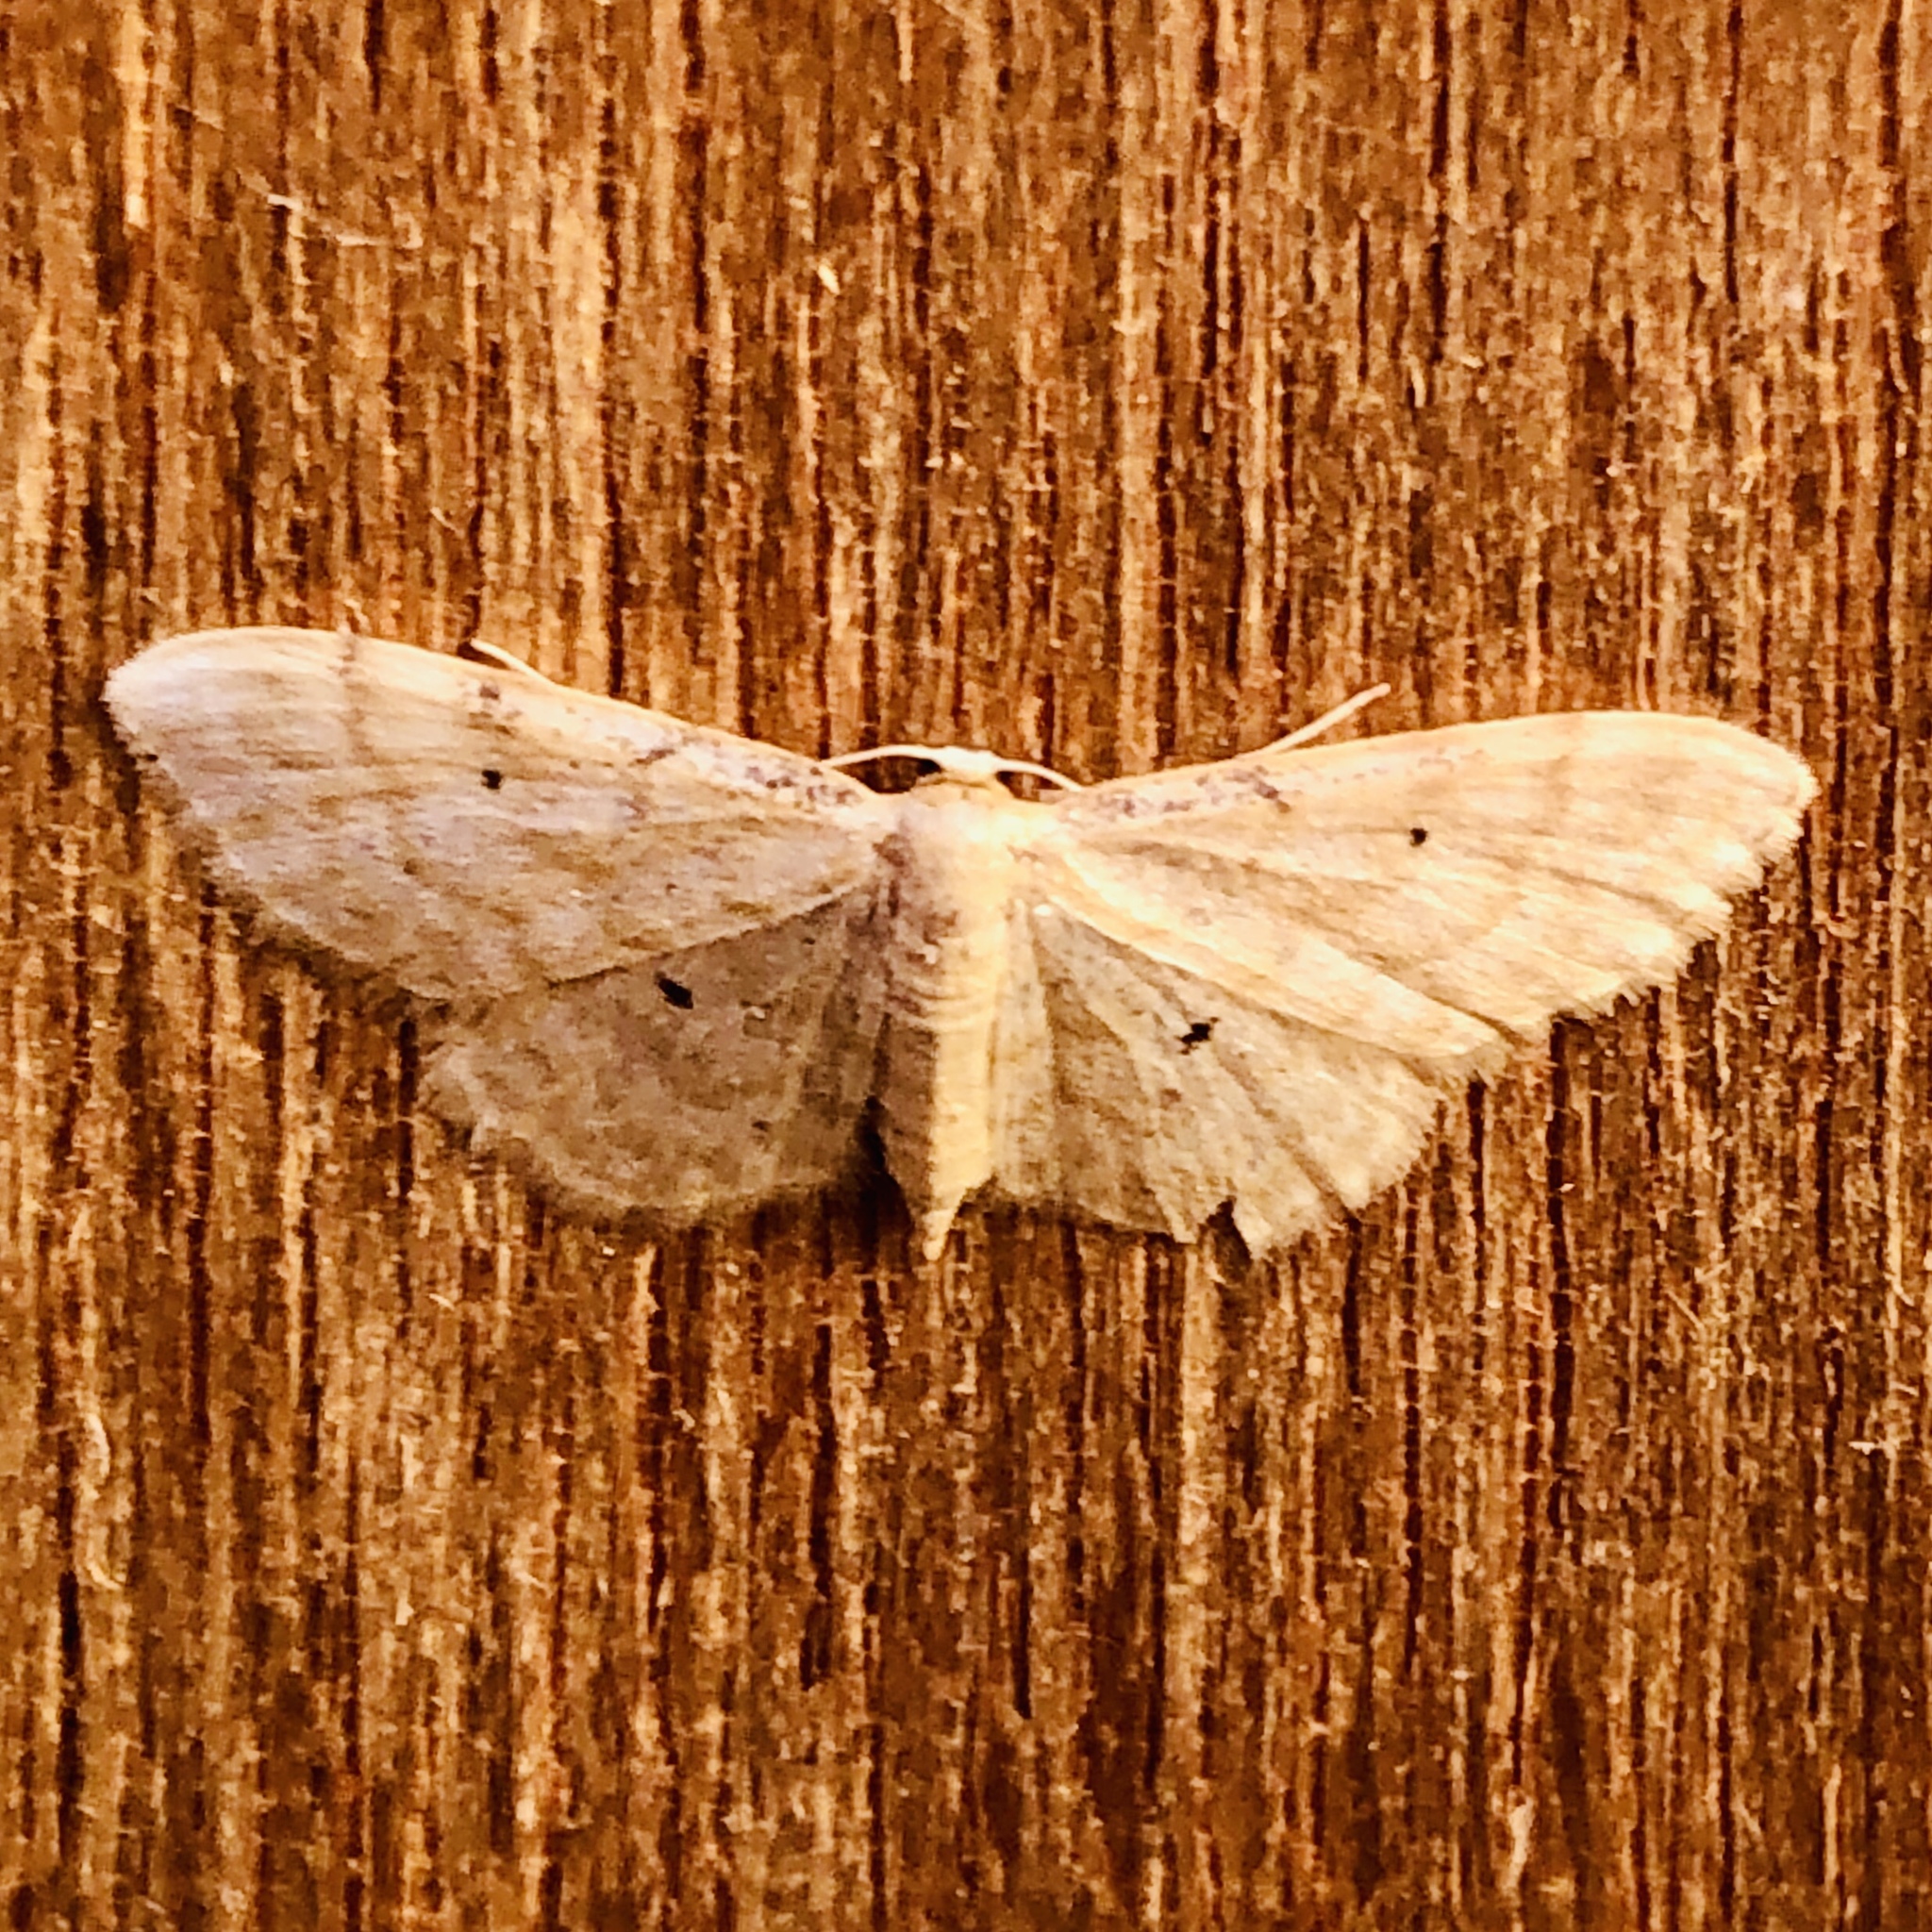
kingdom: Animalia
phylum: Arthropoda
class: Insecta
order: Lepidoptera
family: Geometridae
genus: Idaea
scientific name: Idaea fuscovenosa
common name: Dwarf cream wave
